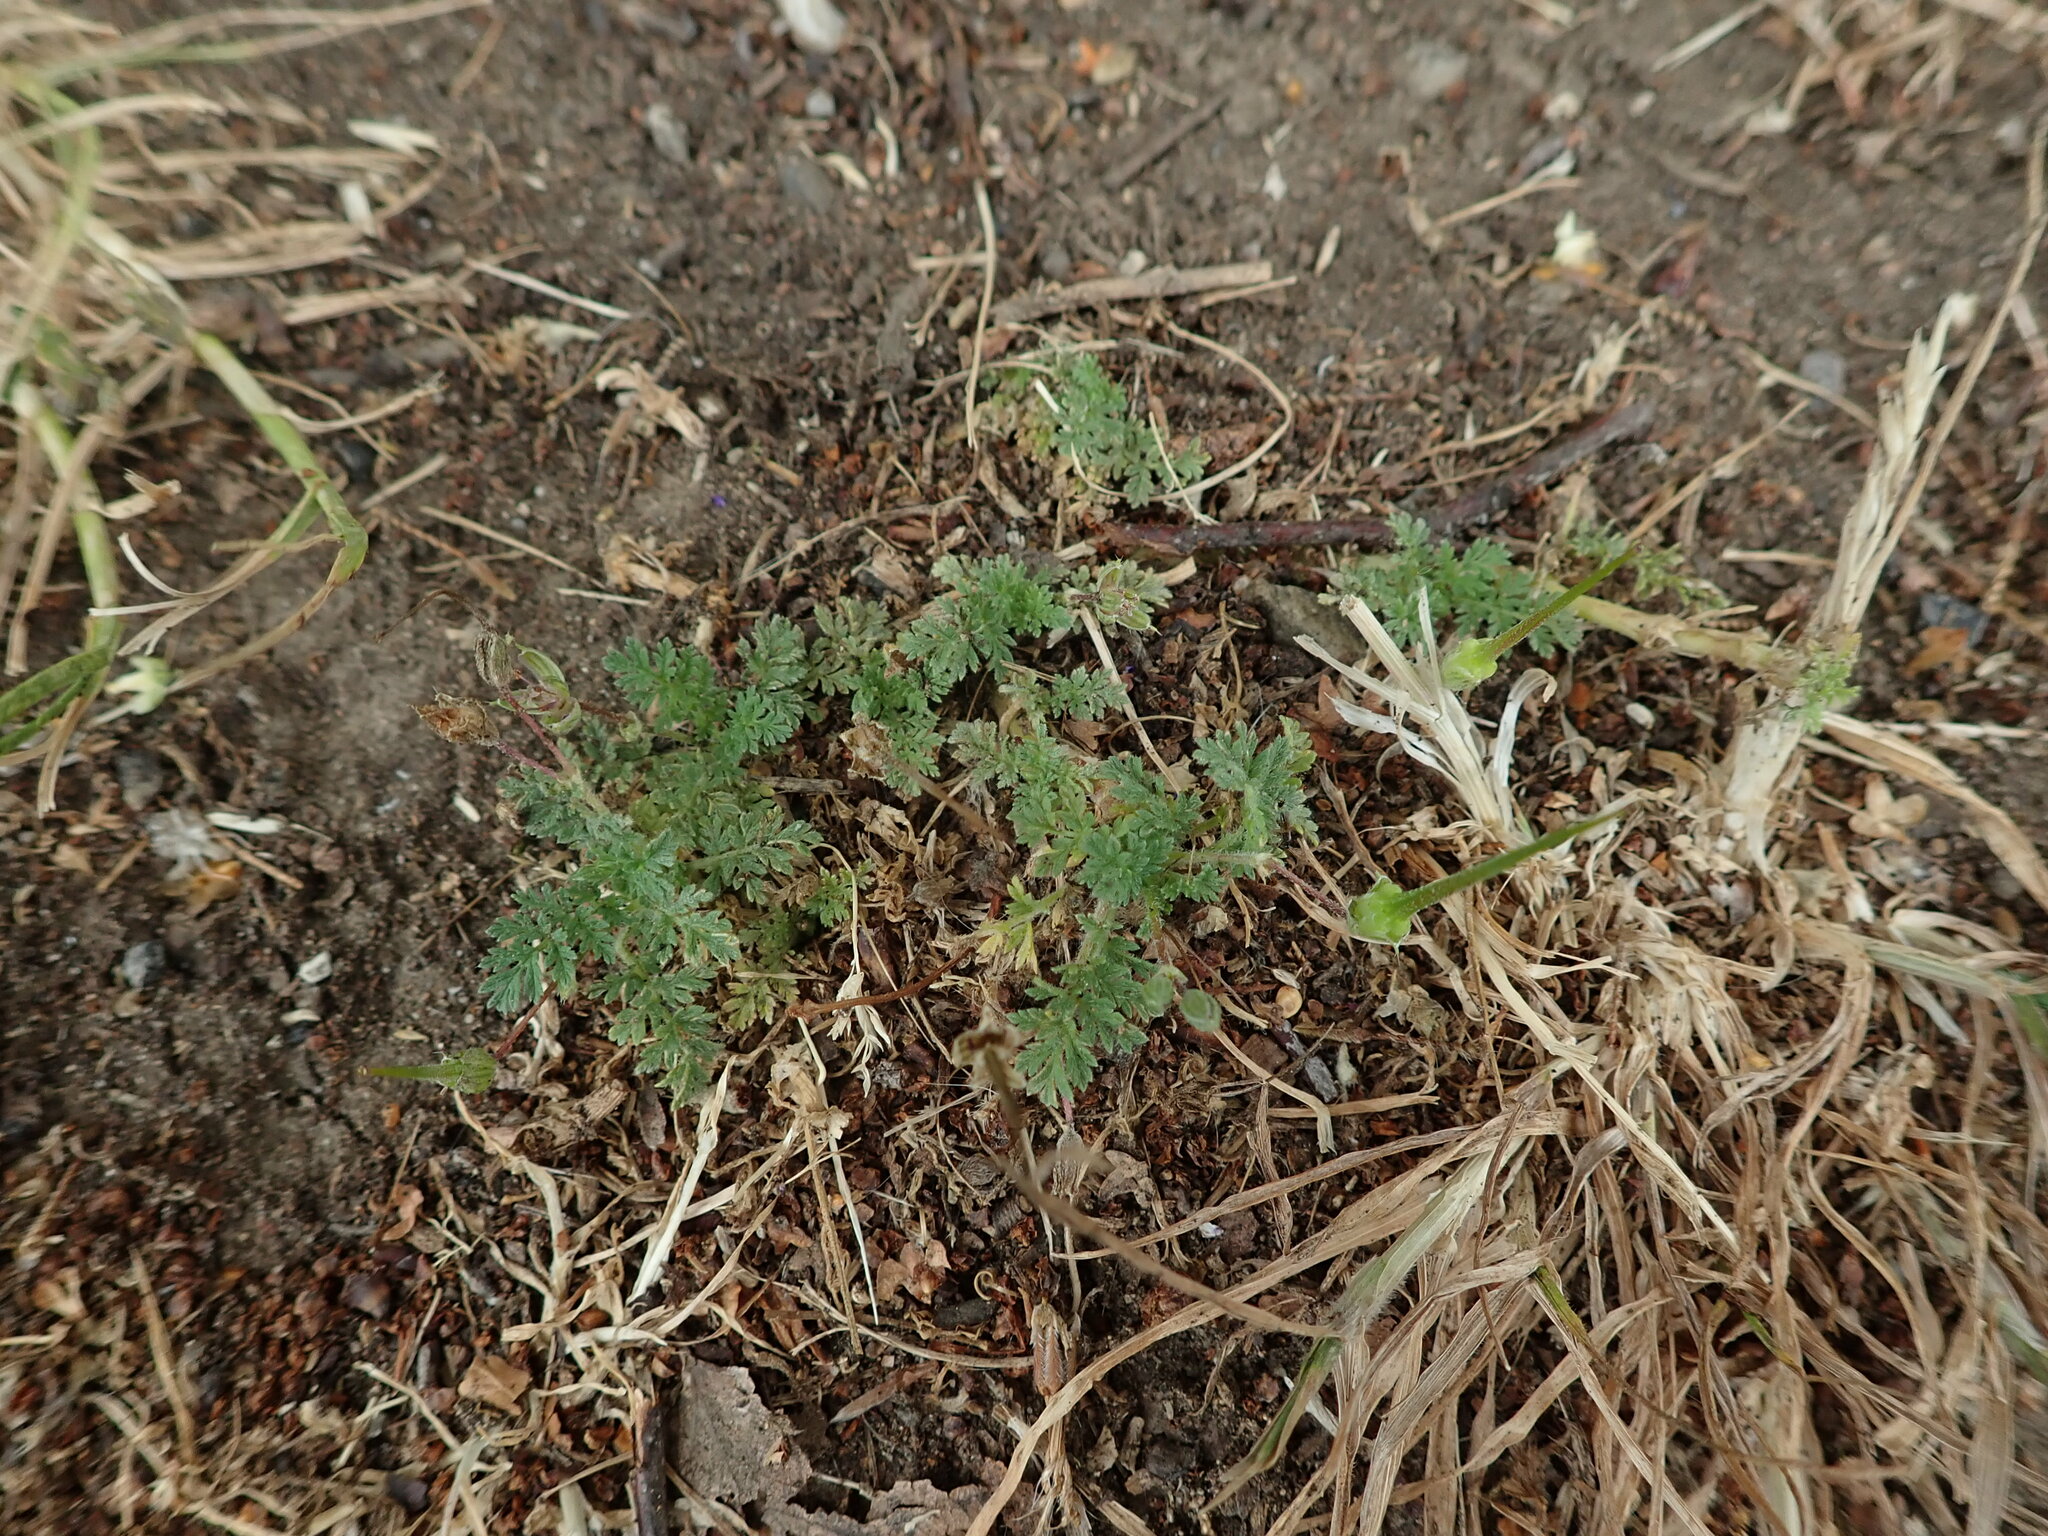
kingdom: Plantae
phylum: Tracheophyta
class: Magnoliopsida
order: Geraniales
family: Geraniaceae
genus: Erodium
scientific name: Erodium cicutarium
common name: Common stork's-bill
